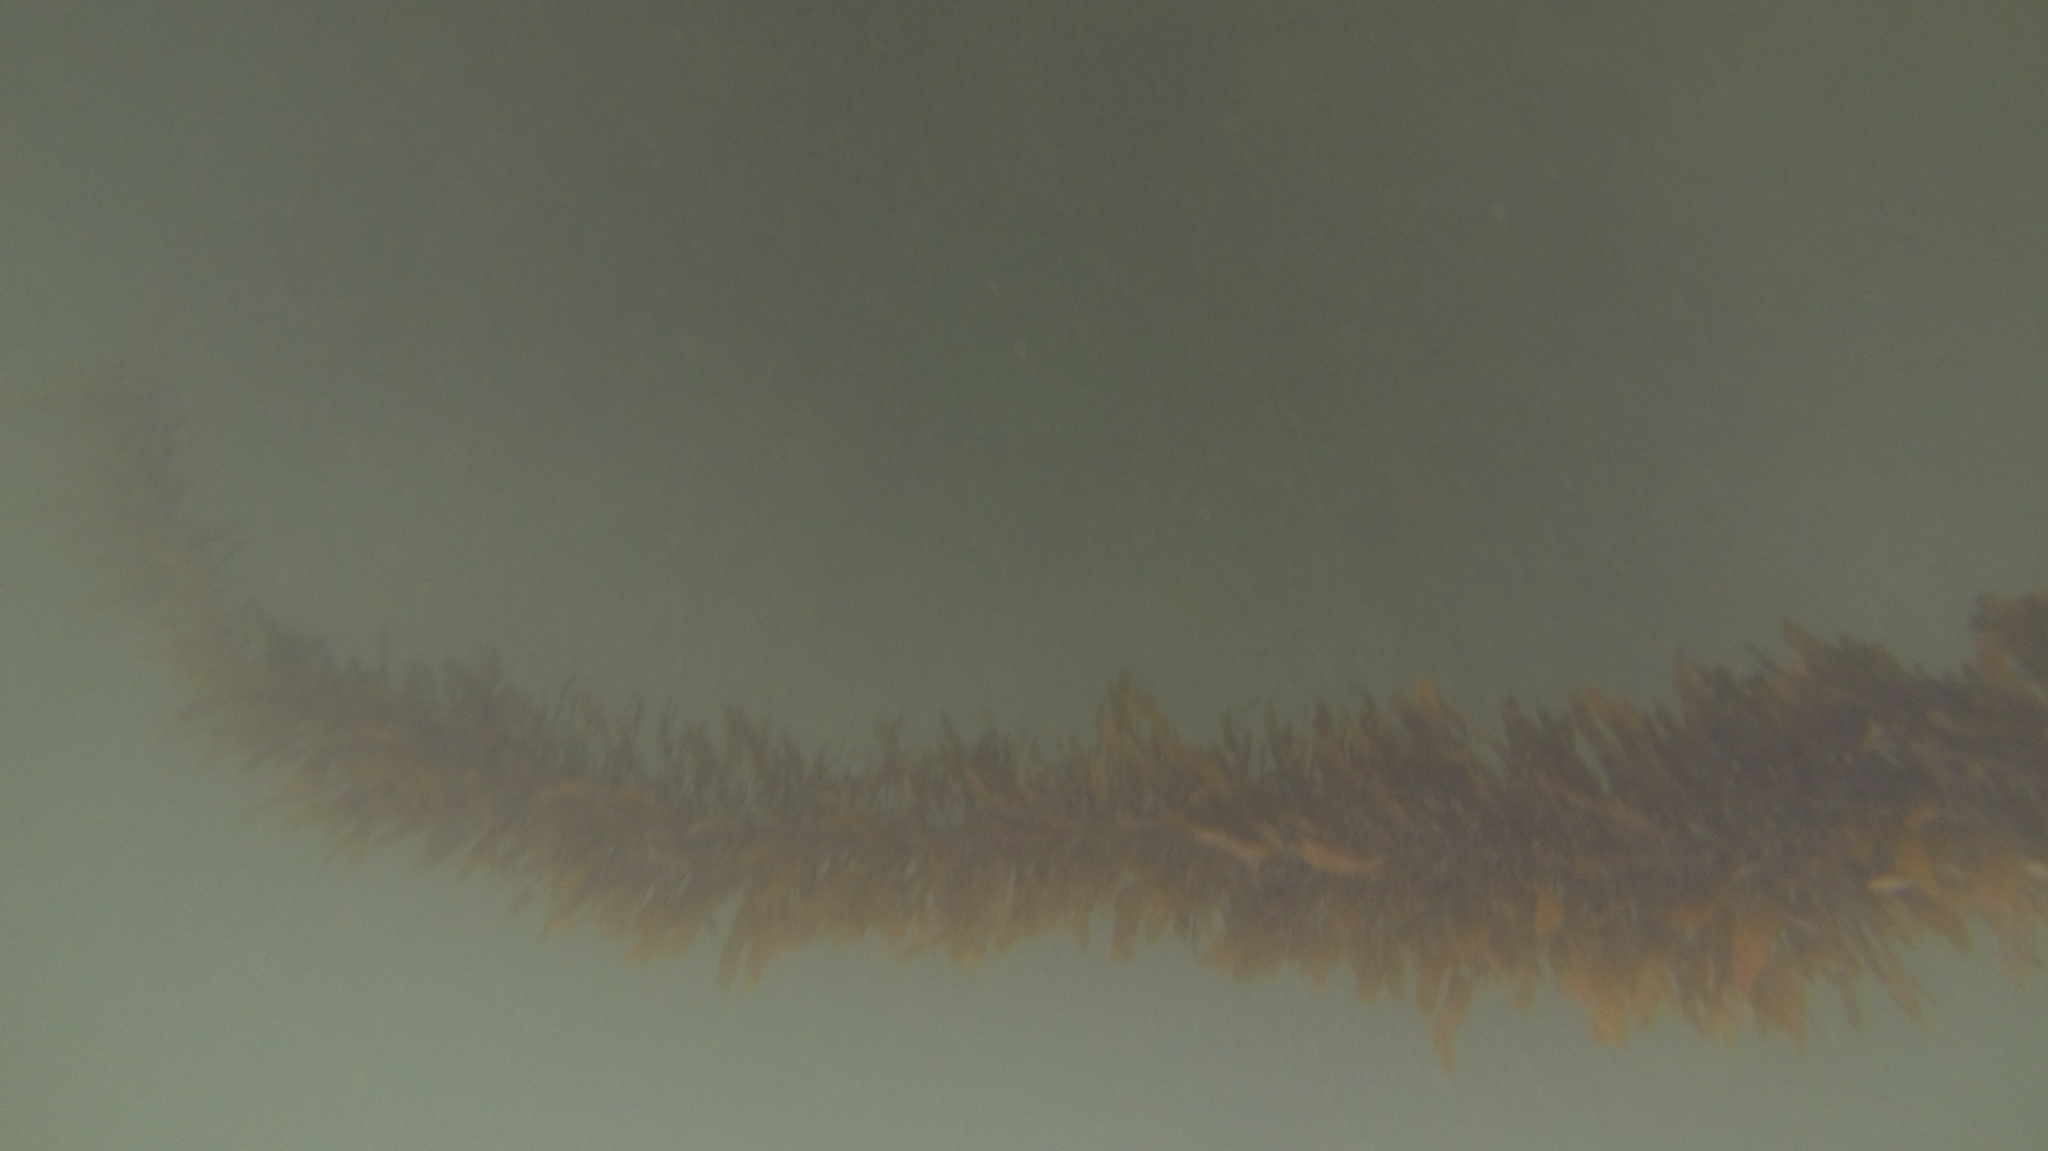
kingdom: Chromista
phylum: Ochrophyta
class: Phaeophyceae
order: Laminariales
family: Lessoniaceae
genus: Egregia
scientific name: Egregia menziesii
